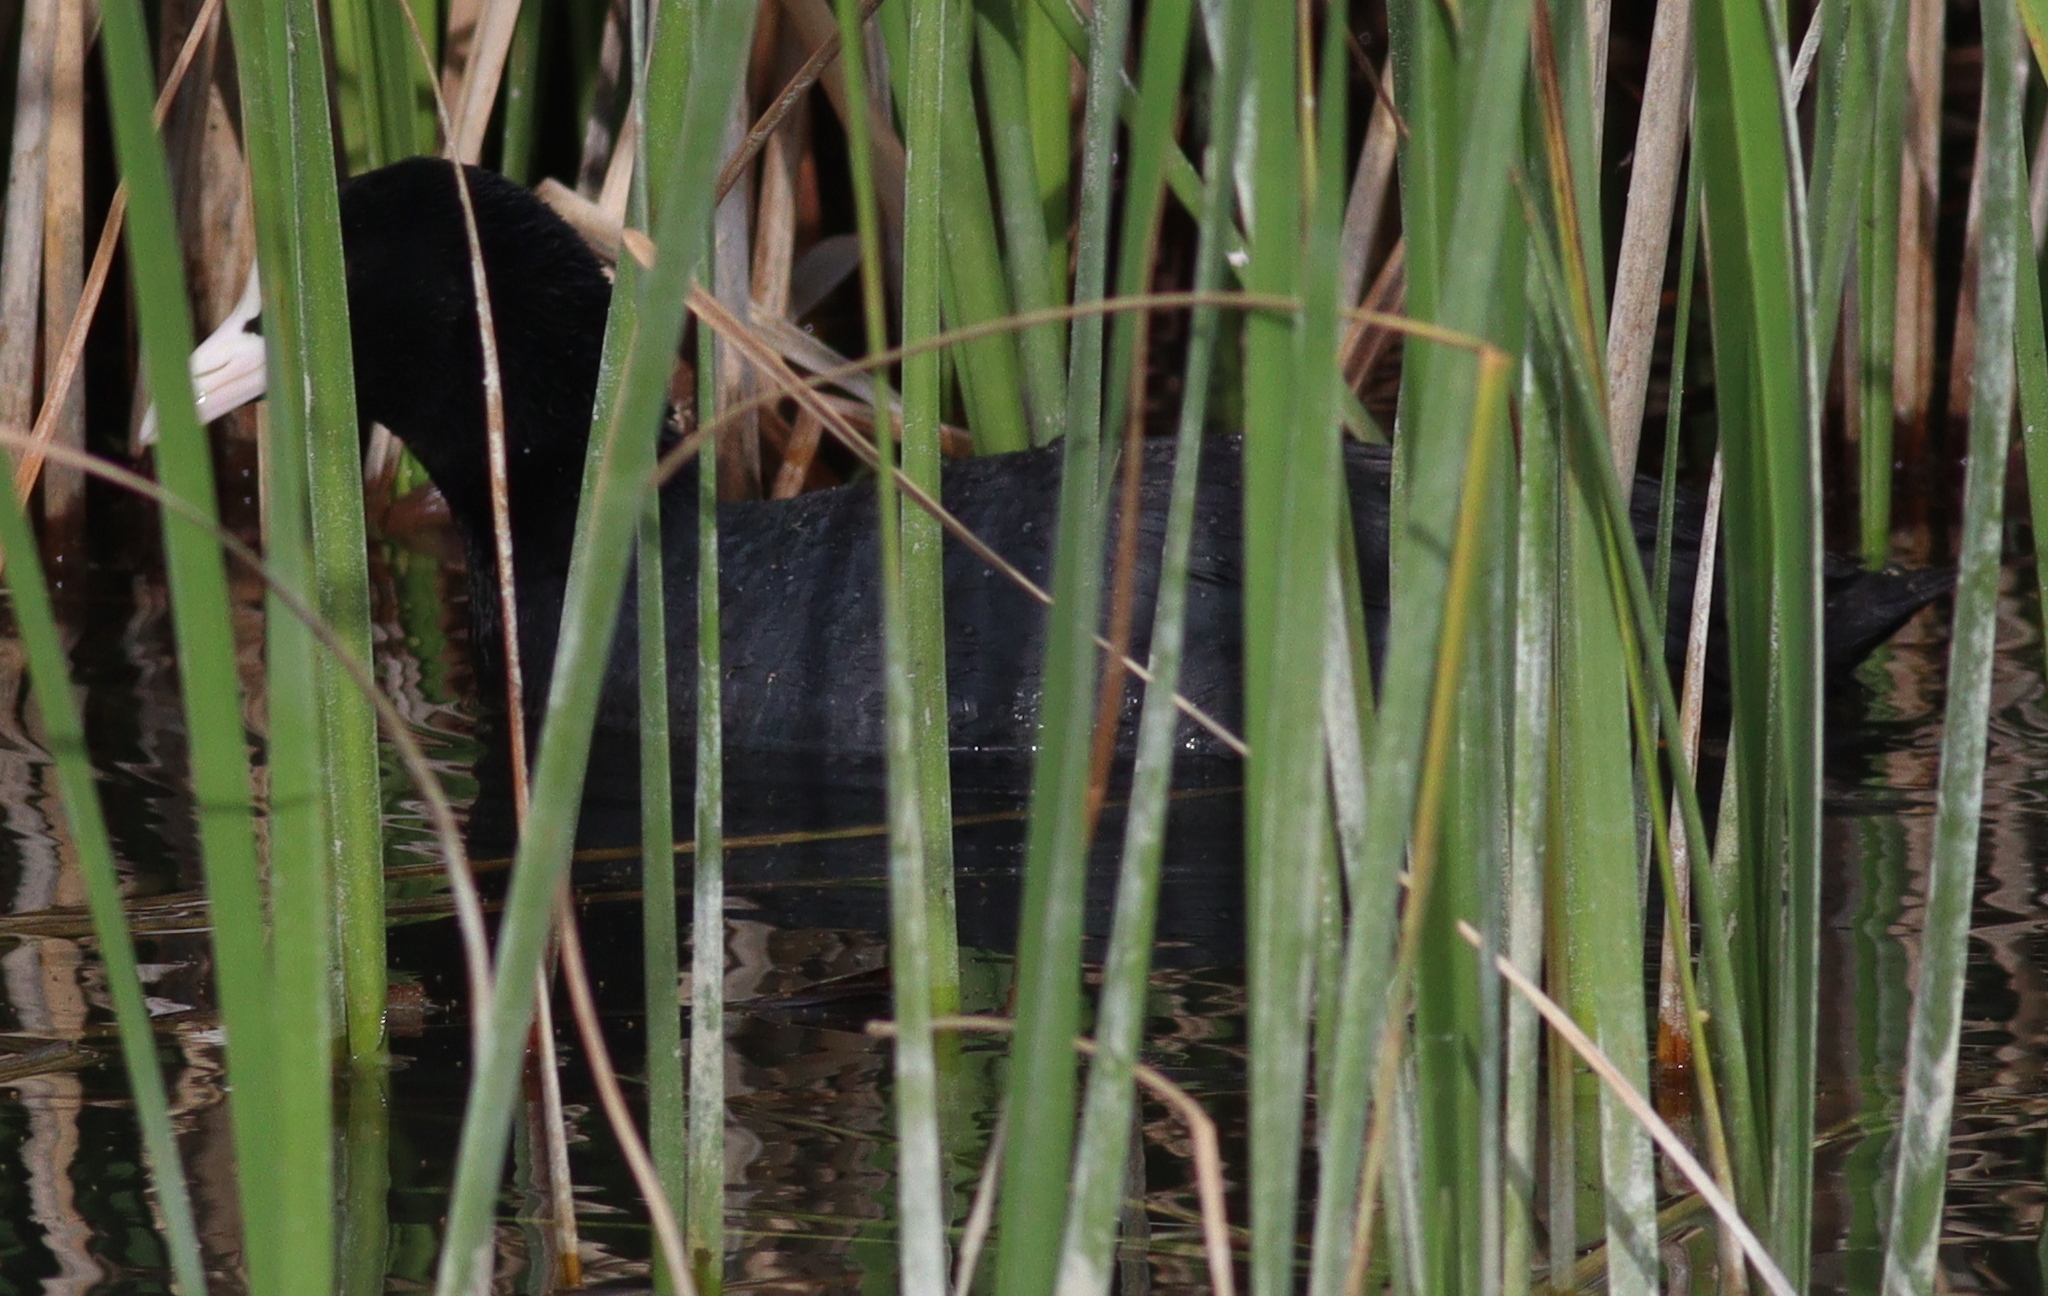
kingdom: Animalia
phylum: Chordata
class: Aves
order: Gruiformes
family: Rallidae
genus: Fulica
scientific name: Fulica atra
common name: Eurasian coot
